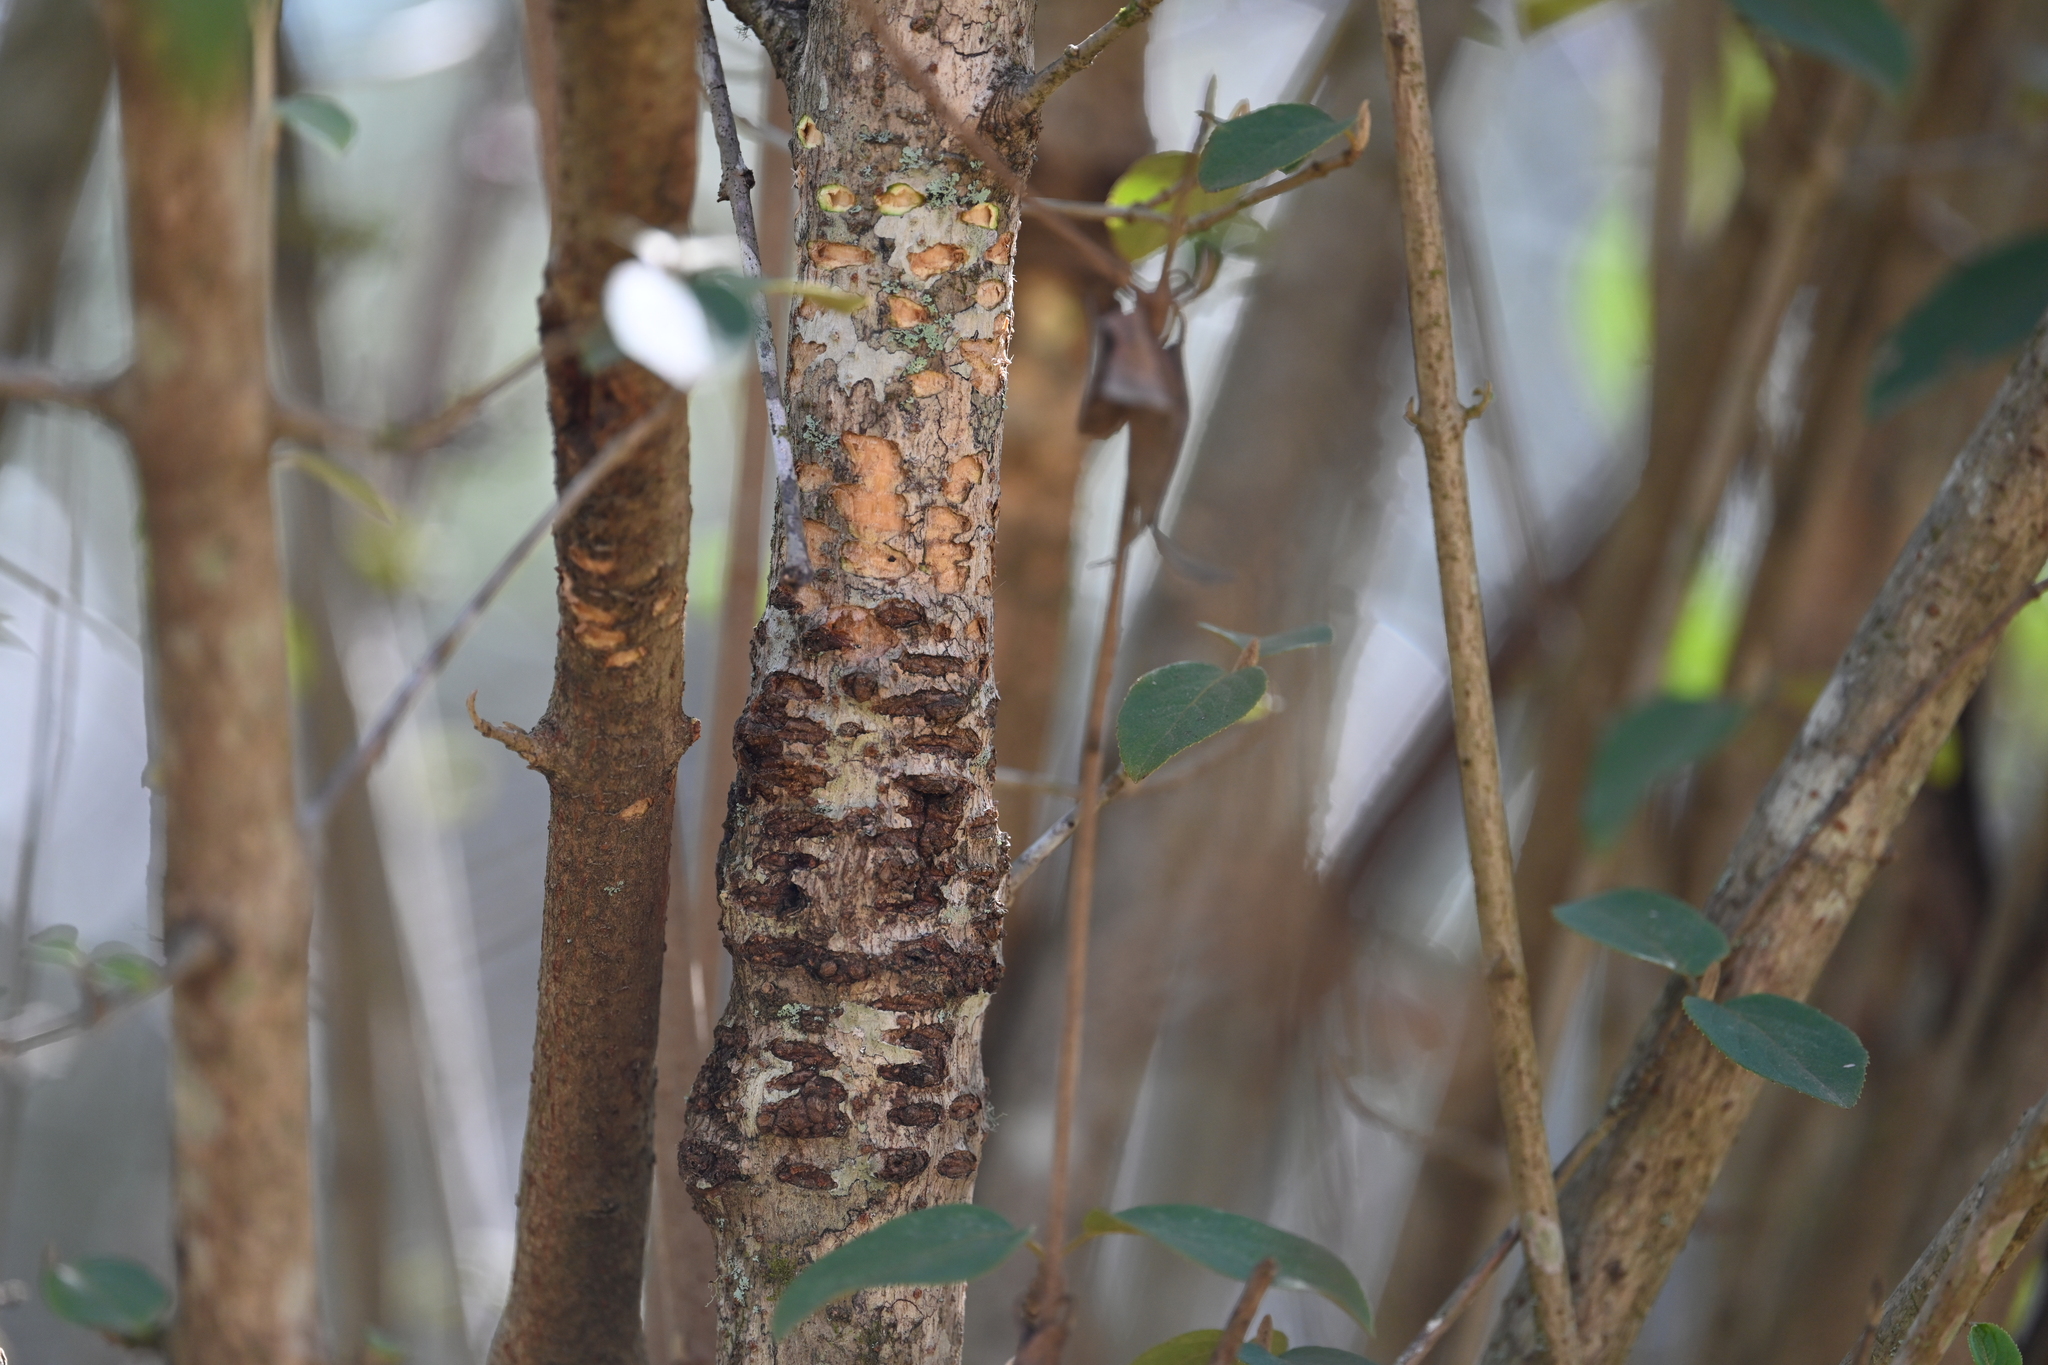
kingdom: Animalia
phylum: Chordata
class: Aves
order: Piciformes
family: Picidae
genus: Sphyrapicus
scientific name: Sphyrapicus varius
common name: Yellow-bellied sapsucker
